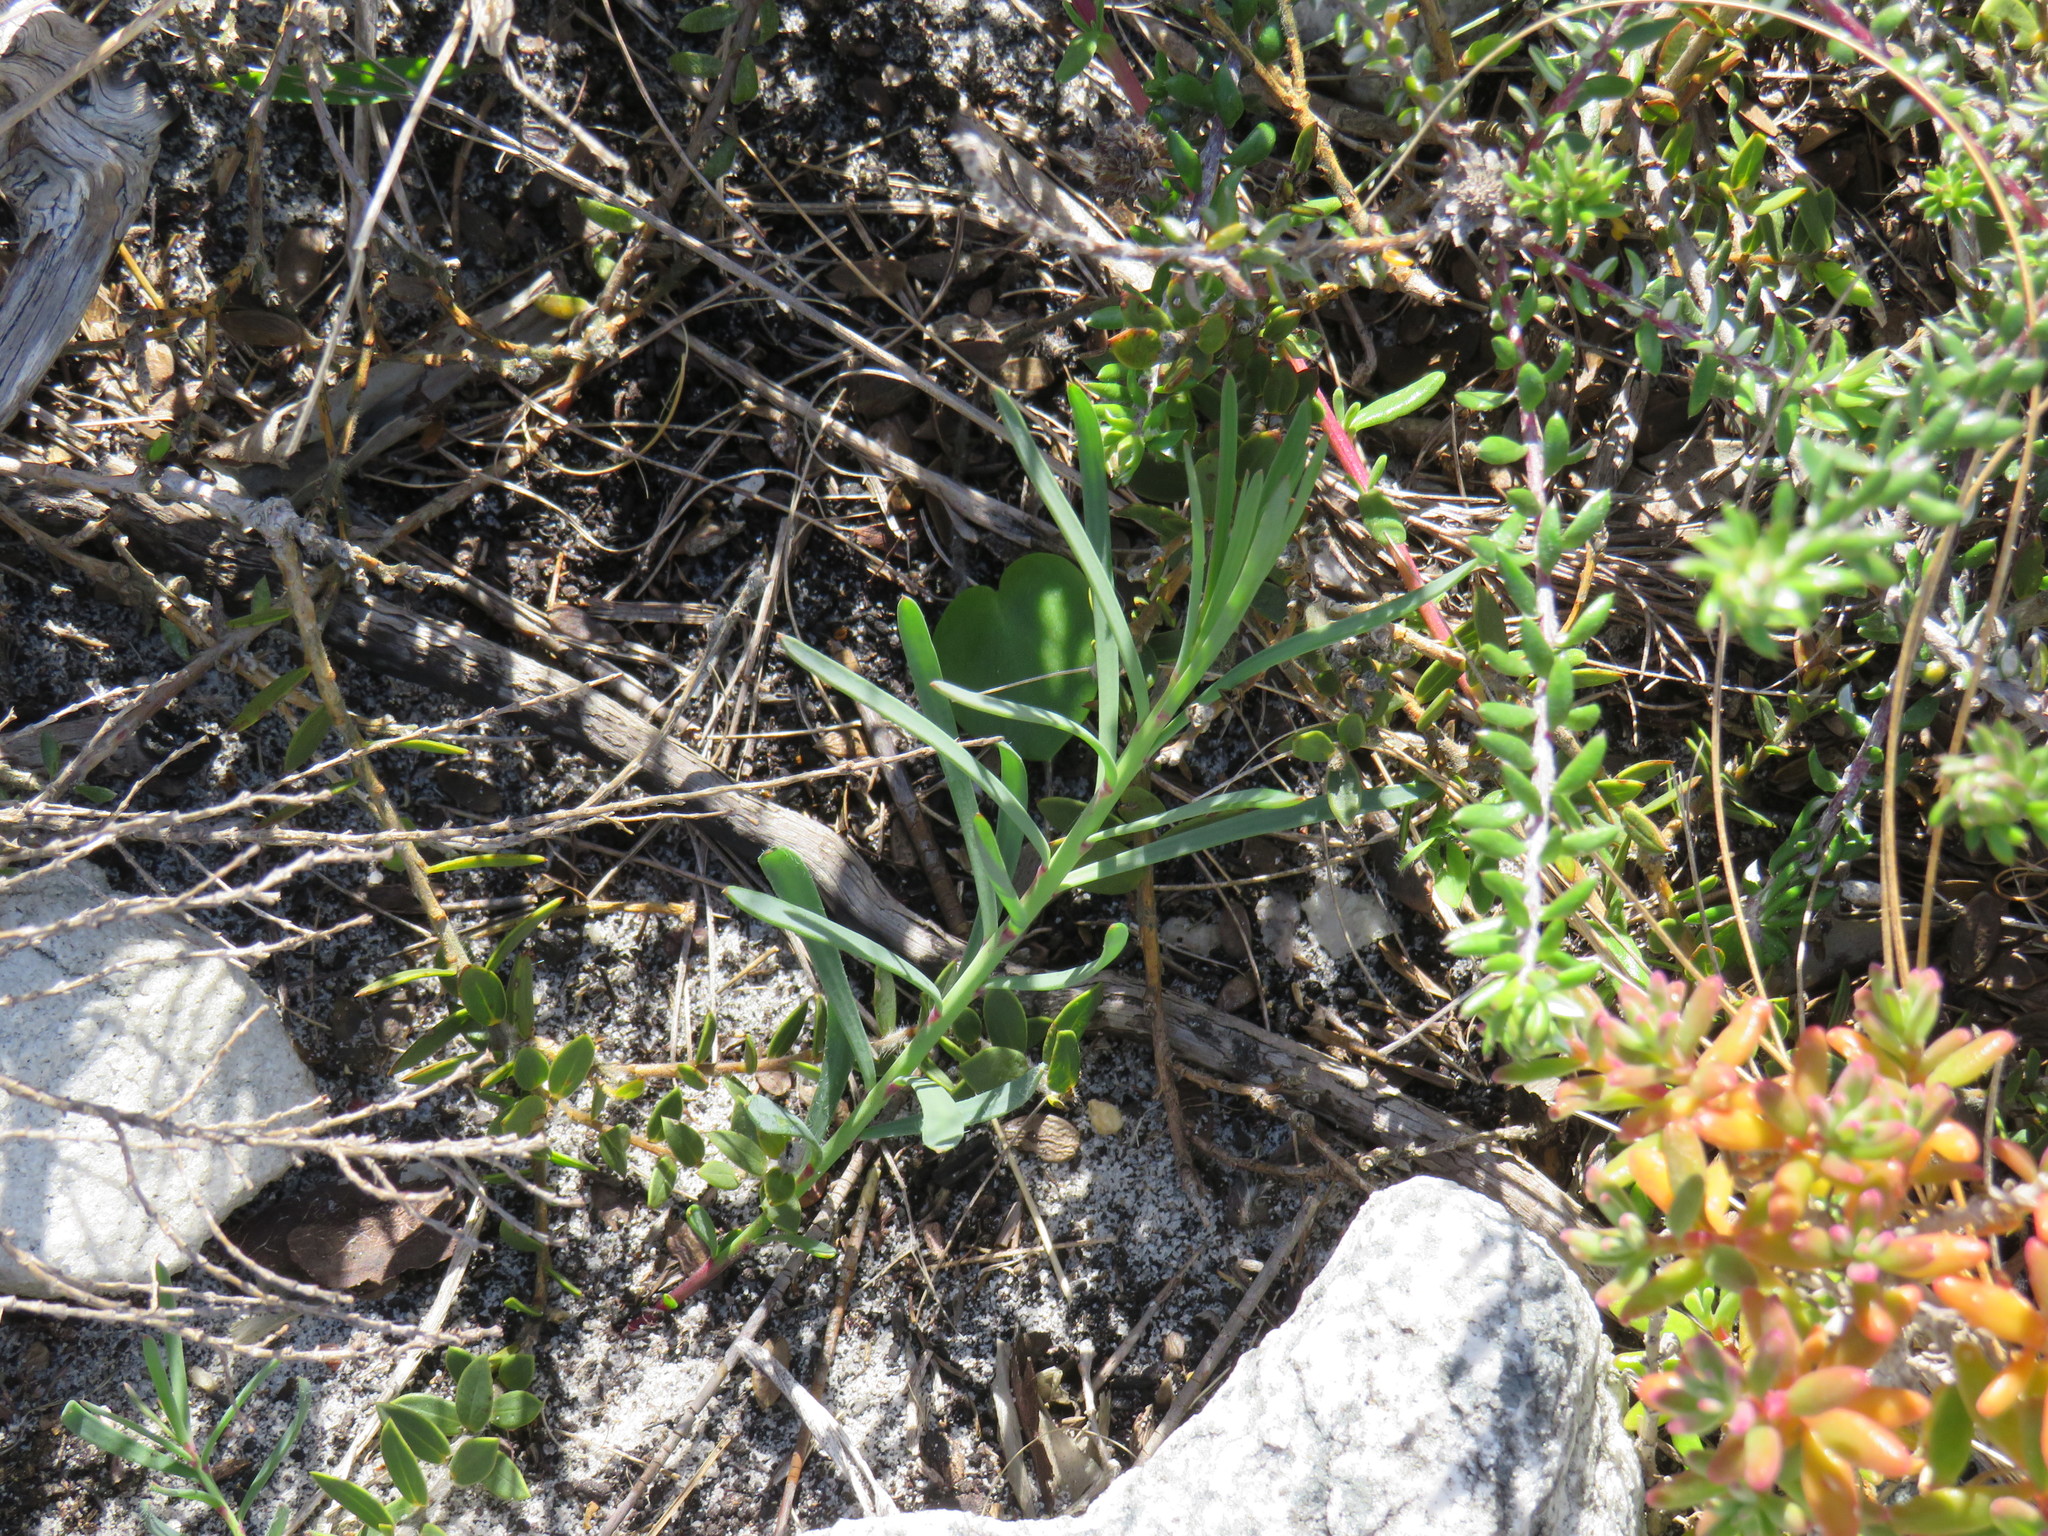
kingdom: Plantae
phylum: Tracheophyta
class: Magnoliopsida
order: Brassicales
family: Brassicaceae
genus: Heliophila
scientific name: Heliophila linearis
